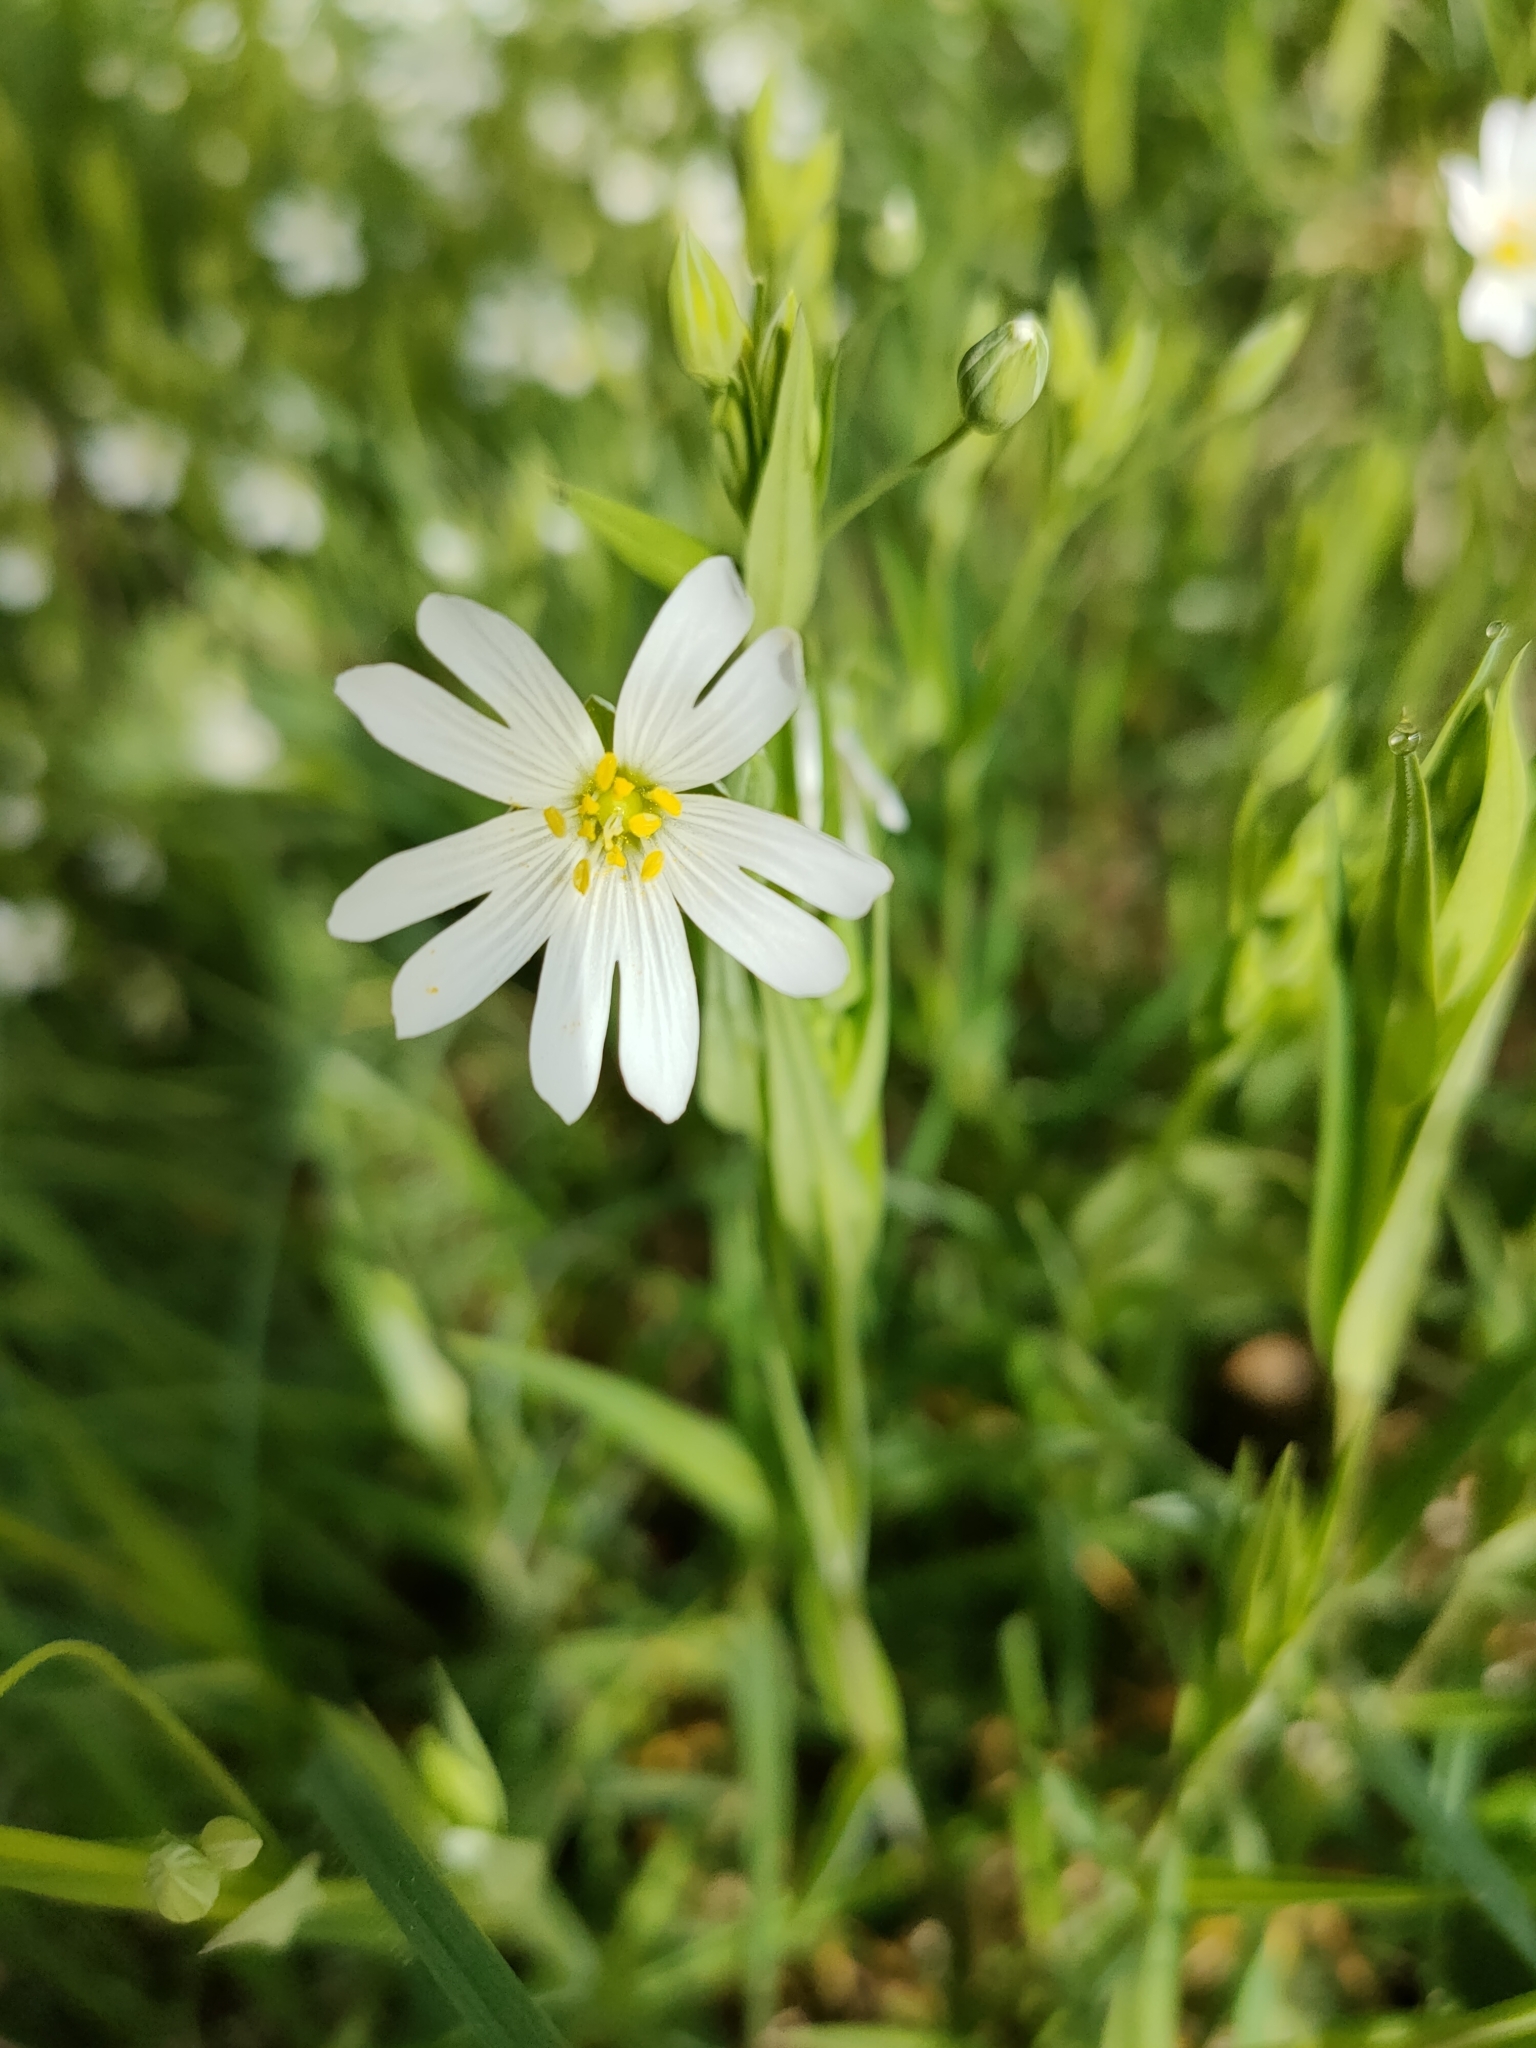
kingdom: Plantae
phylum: Tracheophyta
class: Magnoliopsida
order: Caryophyllales
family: Caryophyllaceae
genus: Rabelera
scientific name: Rabelera holostea
